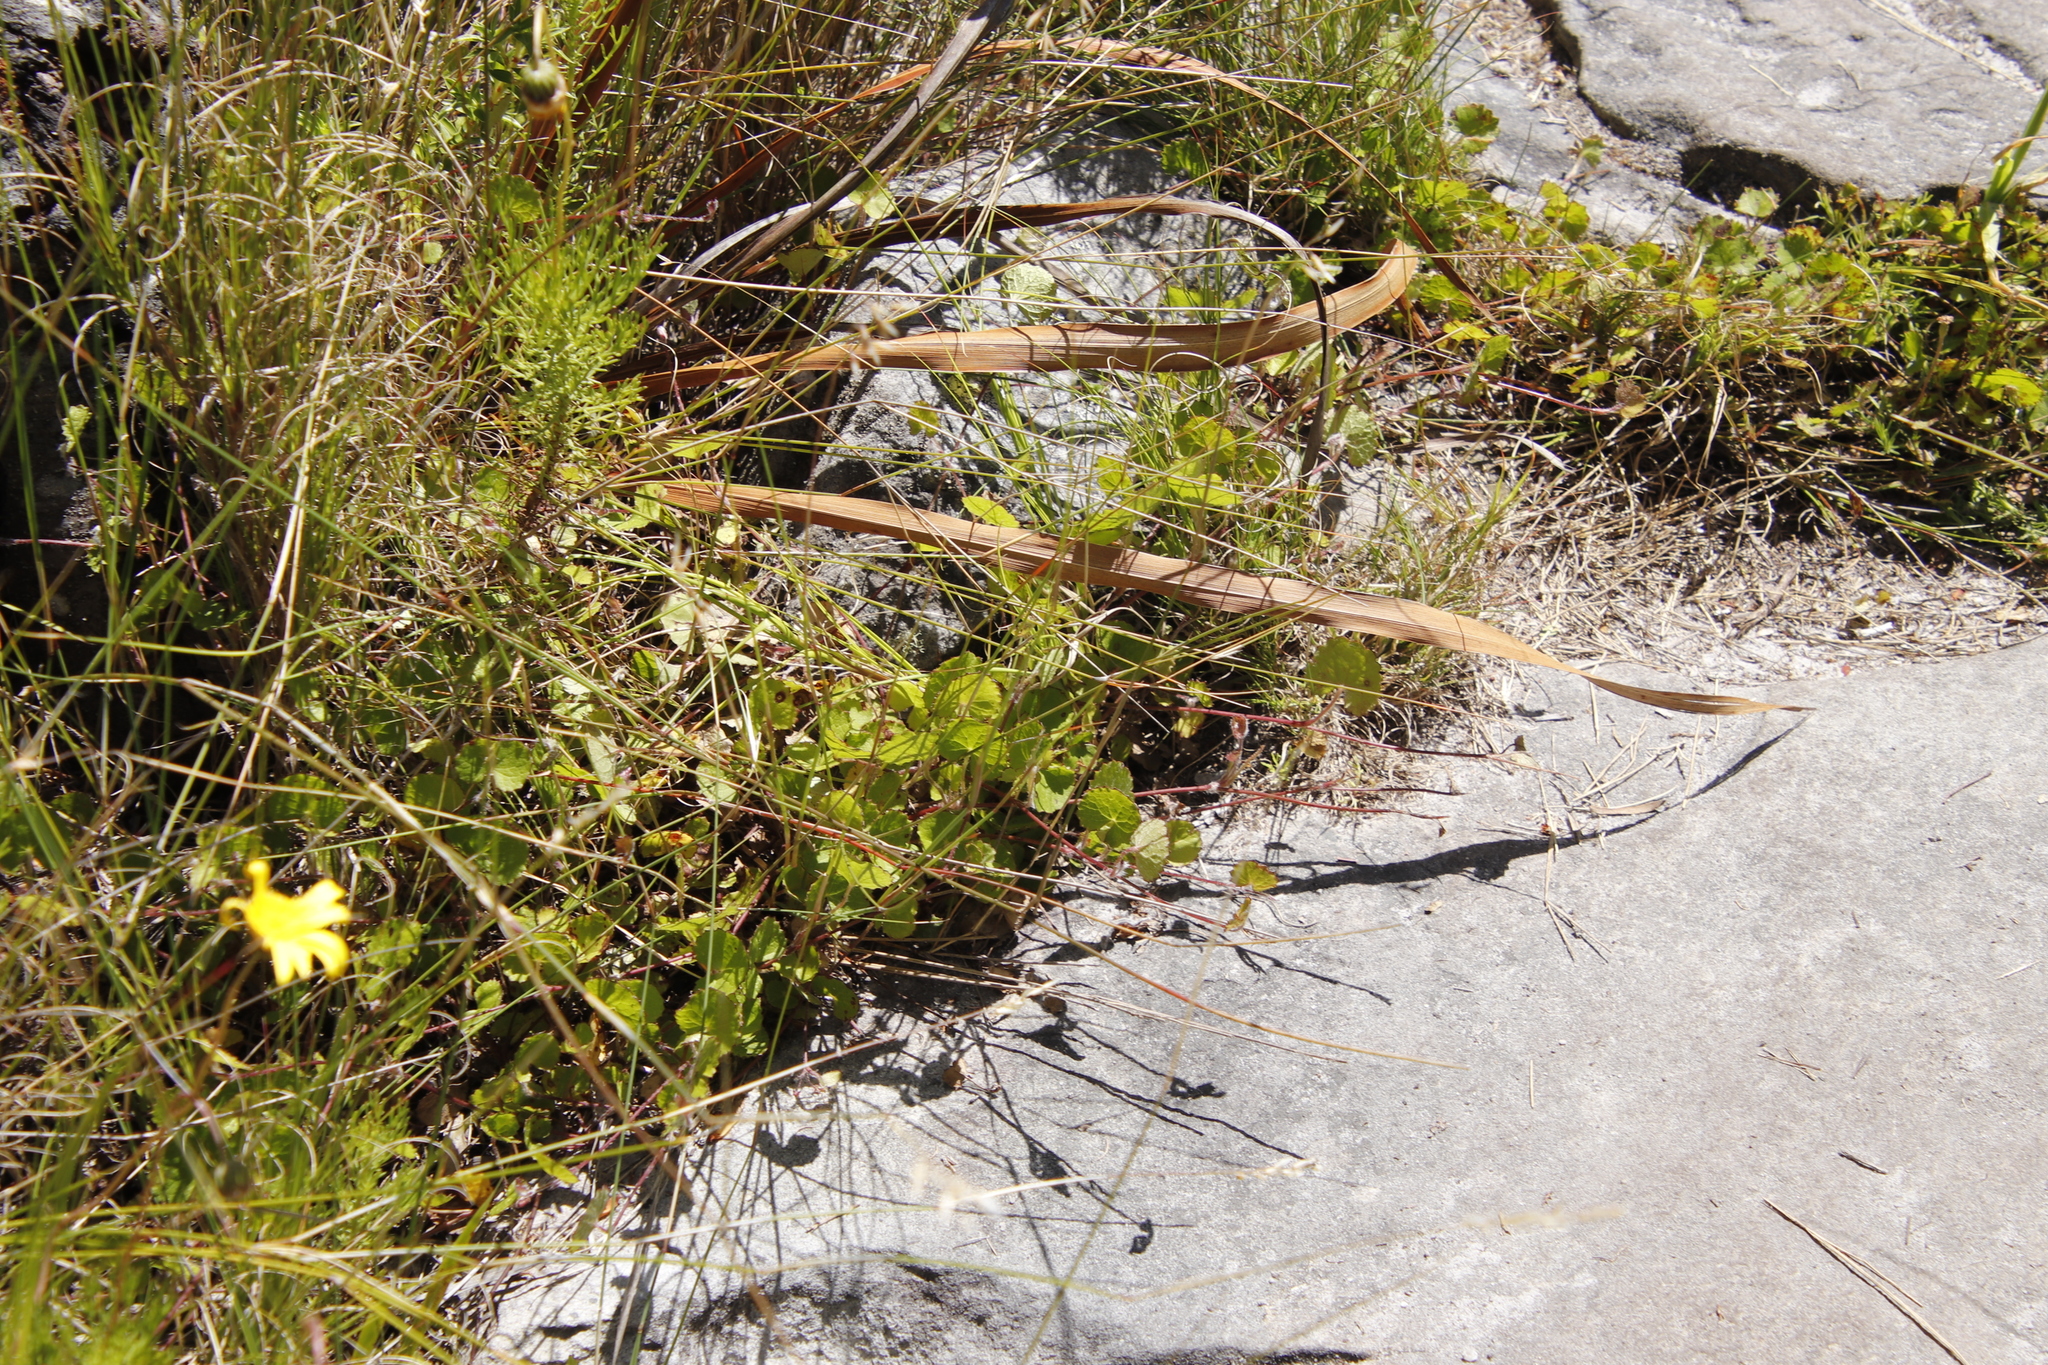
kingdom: Plantae
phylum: Tracheophyta
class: Magnoliopsida
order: Apiales
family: Apiaceae
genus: Centella
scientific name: Centella eriantha
